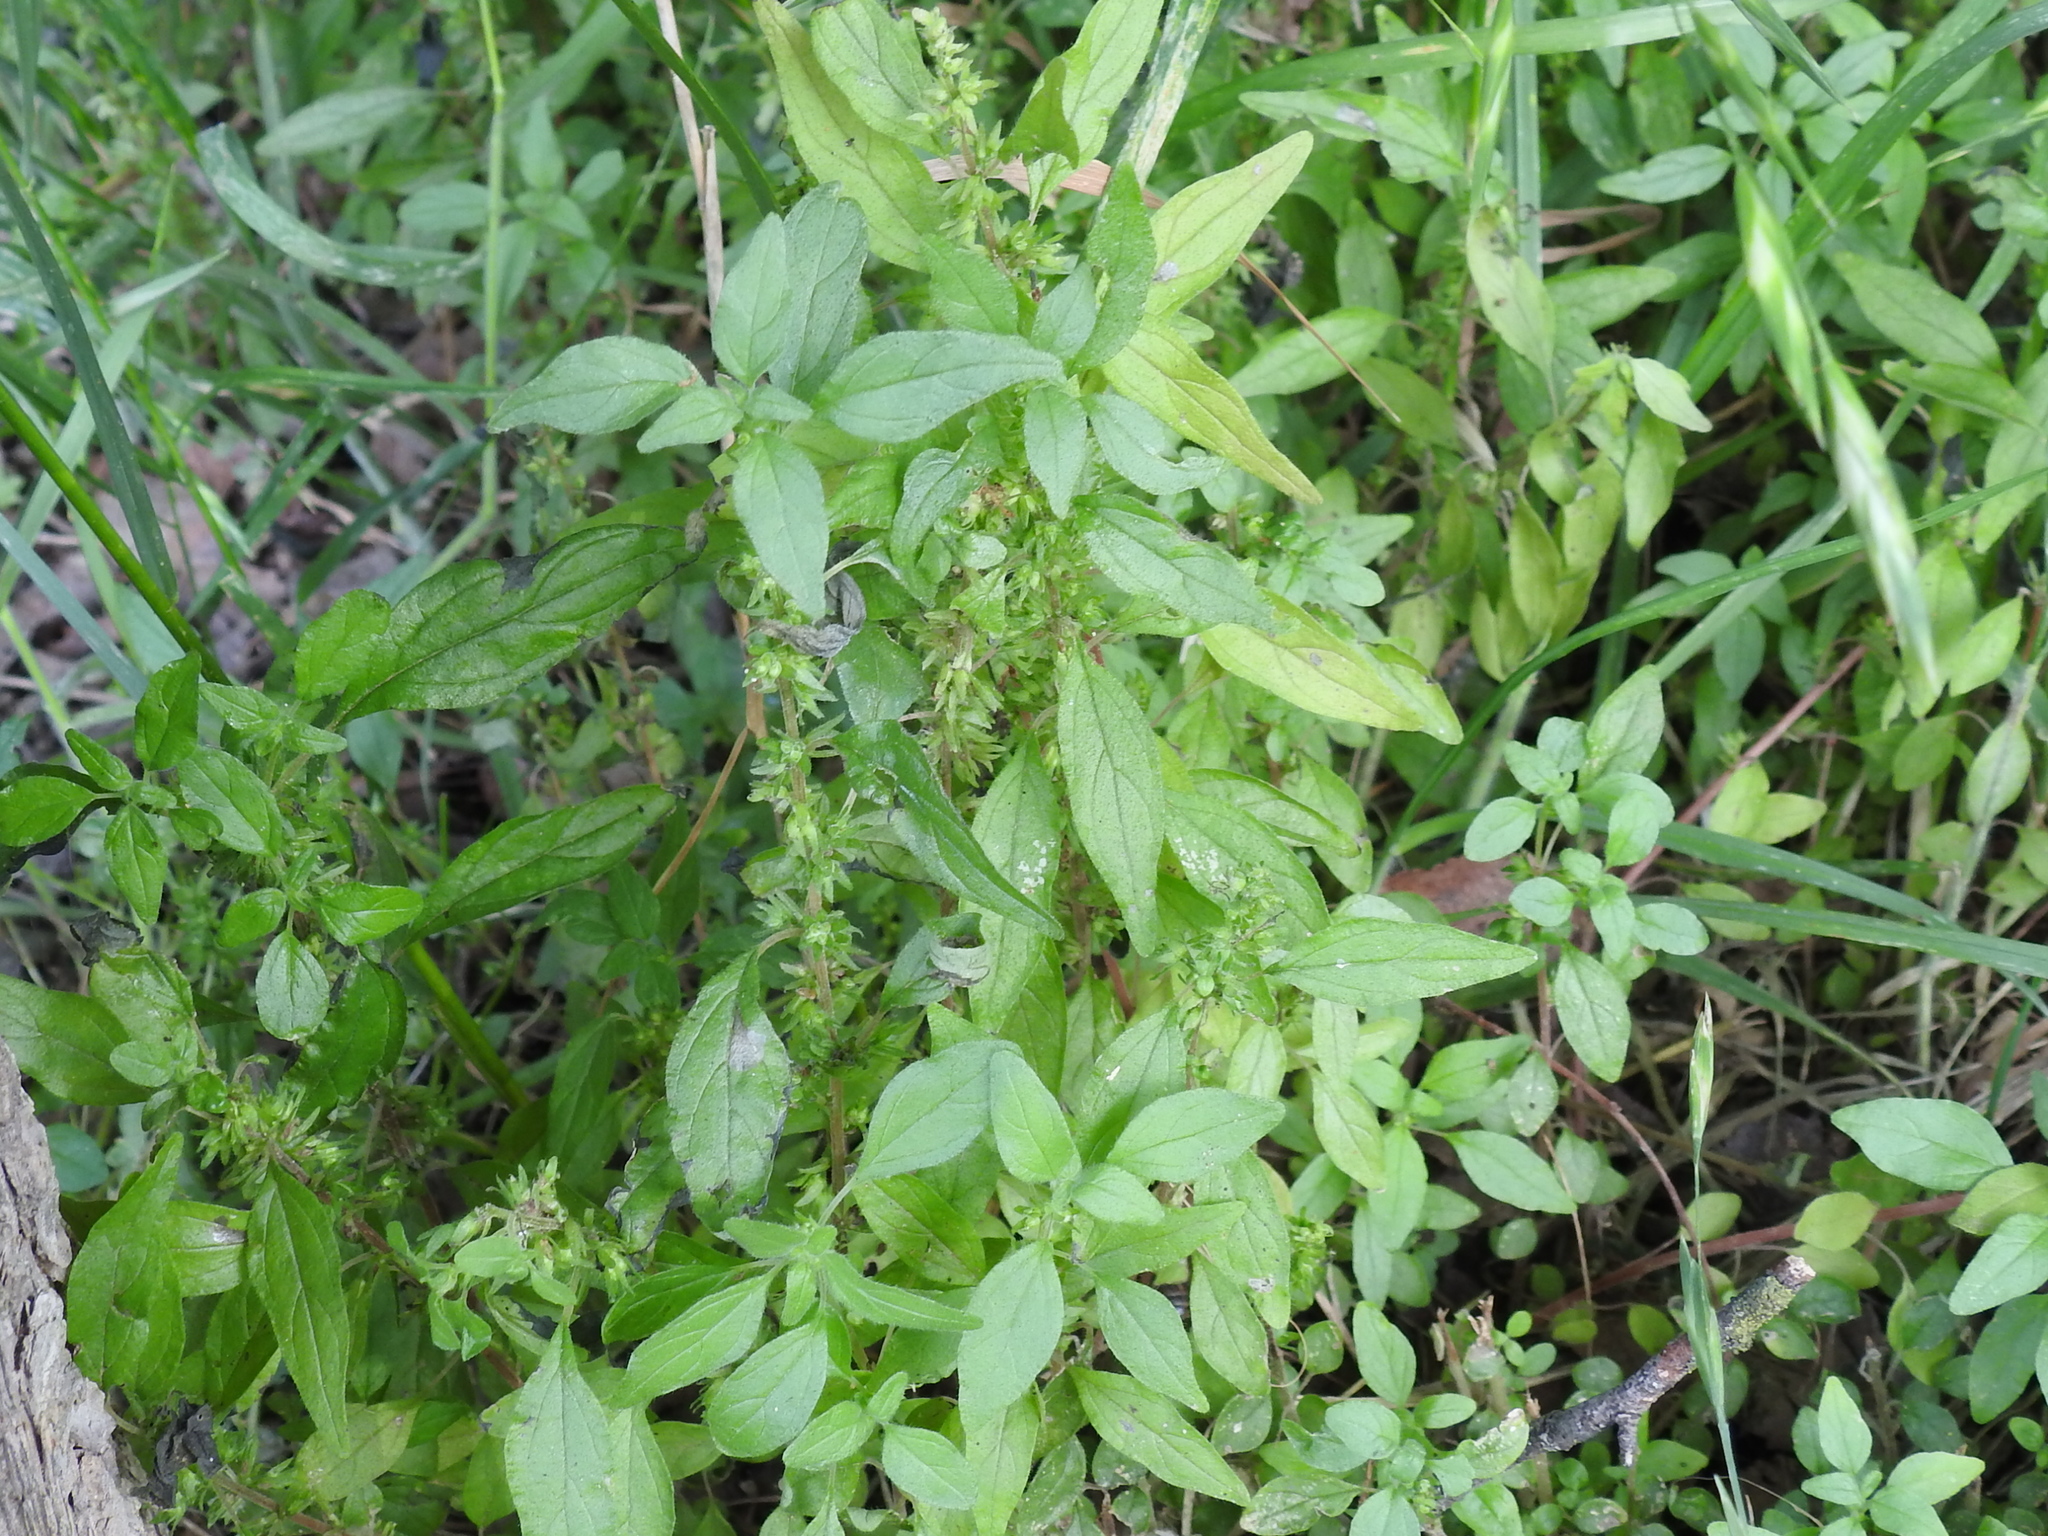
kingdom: Plantae
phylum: Tracheophyta
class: Magnoliopsida
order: Rosales
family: Urticaceae
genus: Parietaria
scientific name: Parietaria pensylvanica
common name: Pennsylvania pellitory
